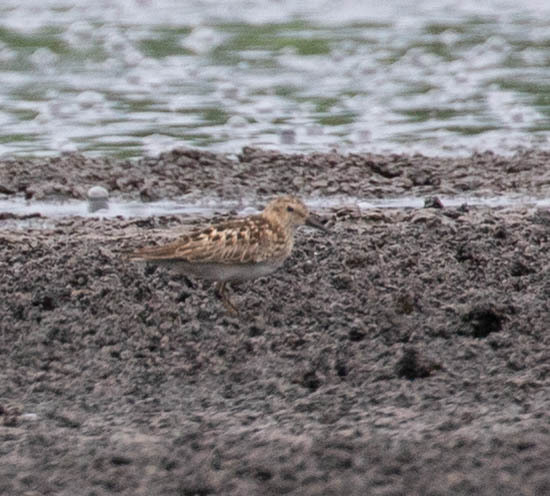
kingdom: Animalia
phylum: Chordata
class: Aves
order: Charadriiformes
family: Scolopacidae
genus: Calidris
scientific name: Calidris minutilla
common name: Least sandpiper
